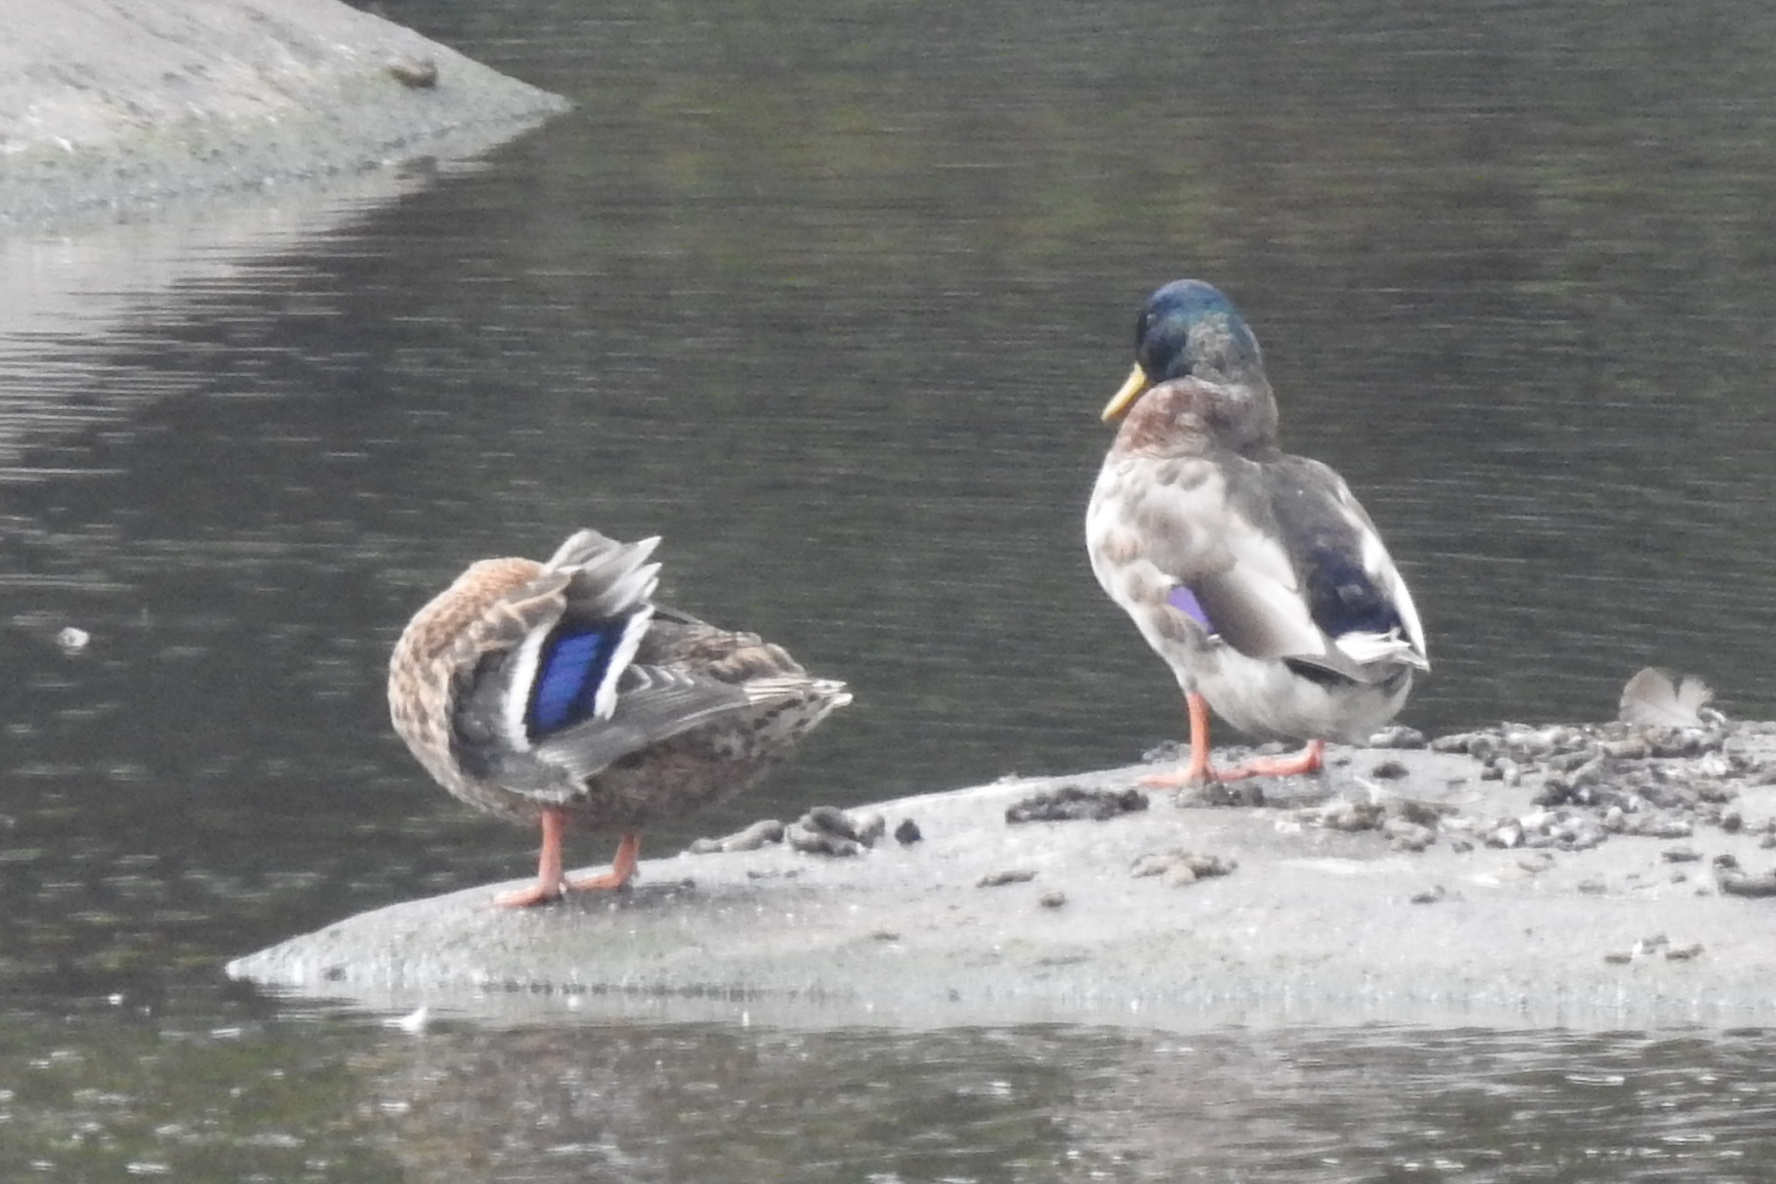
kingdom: Animalia
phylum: Chordata
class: Aves
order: Anseriformes
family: Anatidae
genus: Anas
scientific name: Anas platyrhynchos
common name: Mallard
